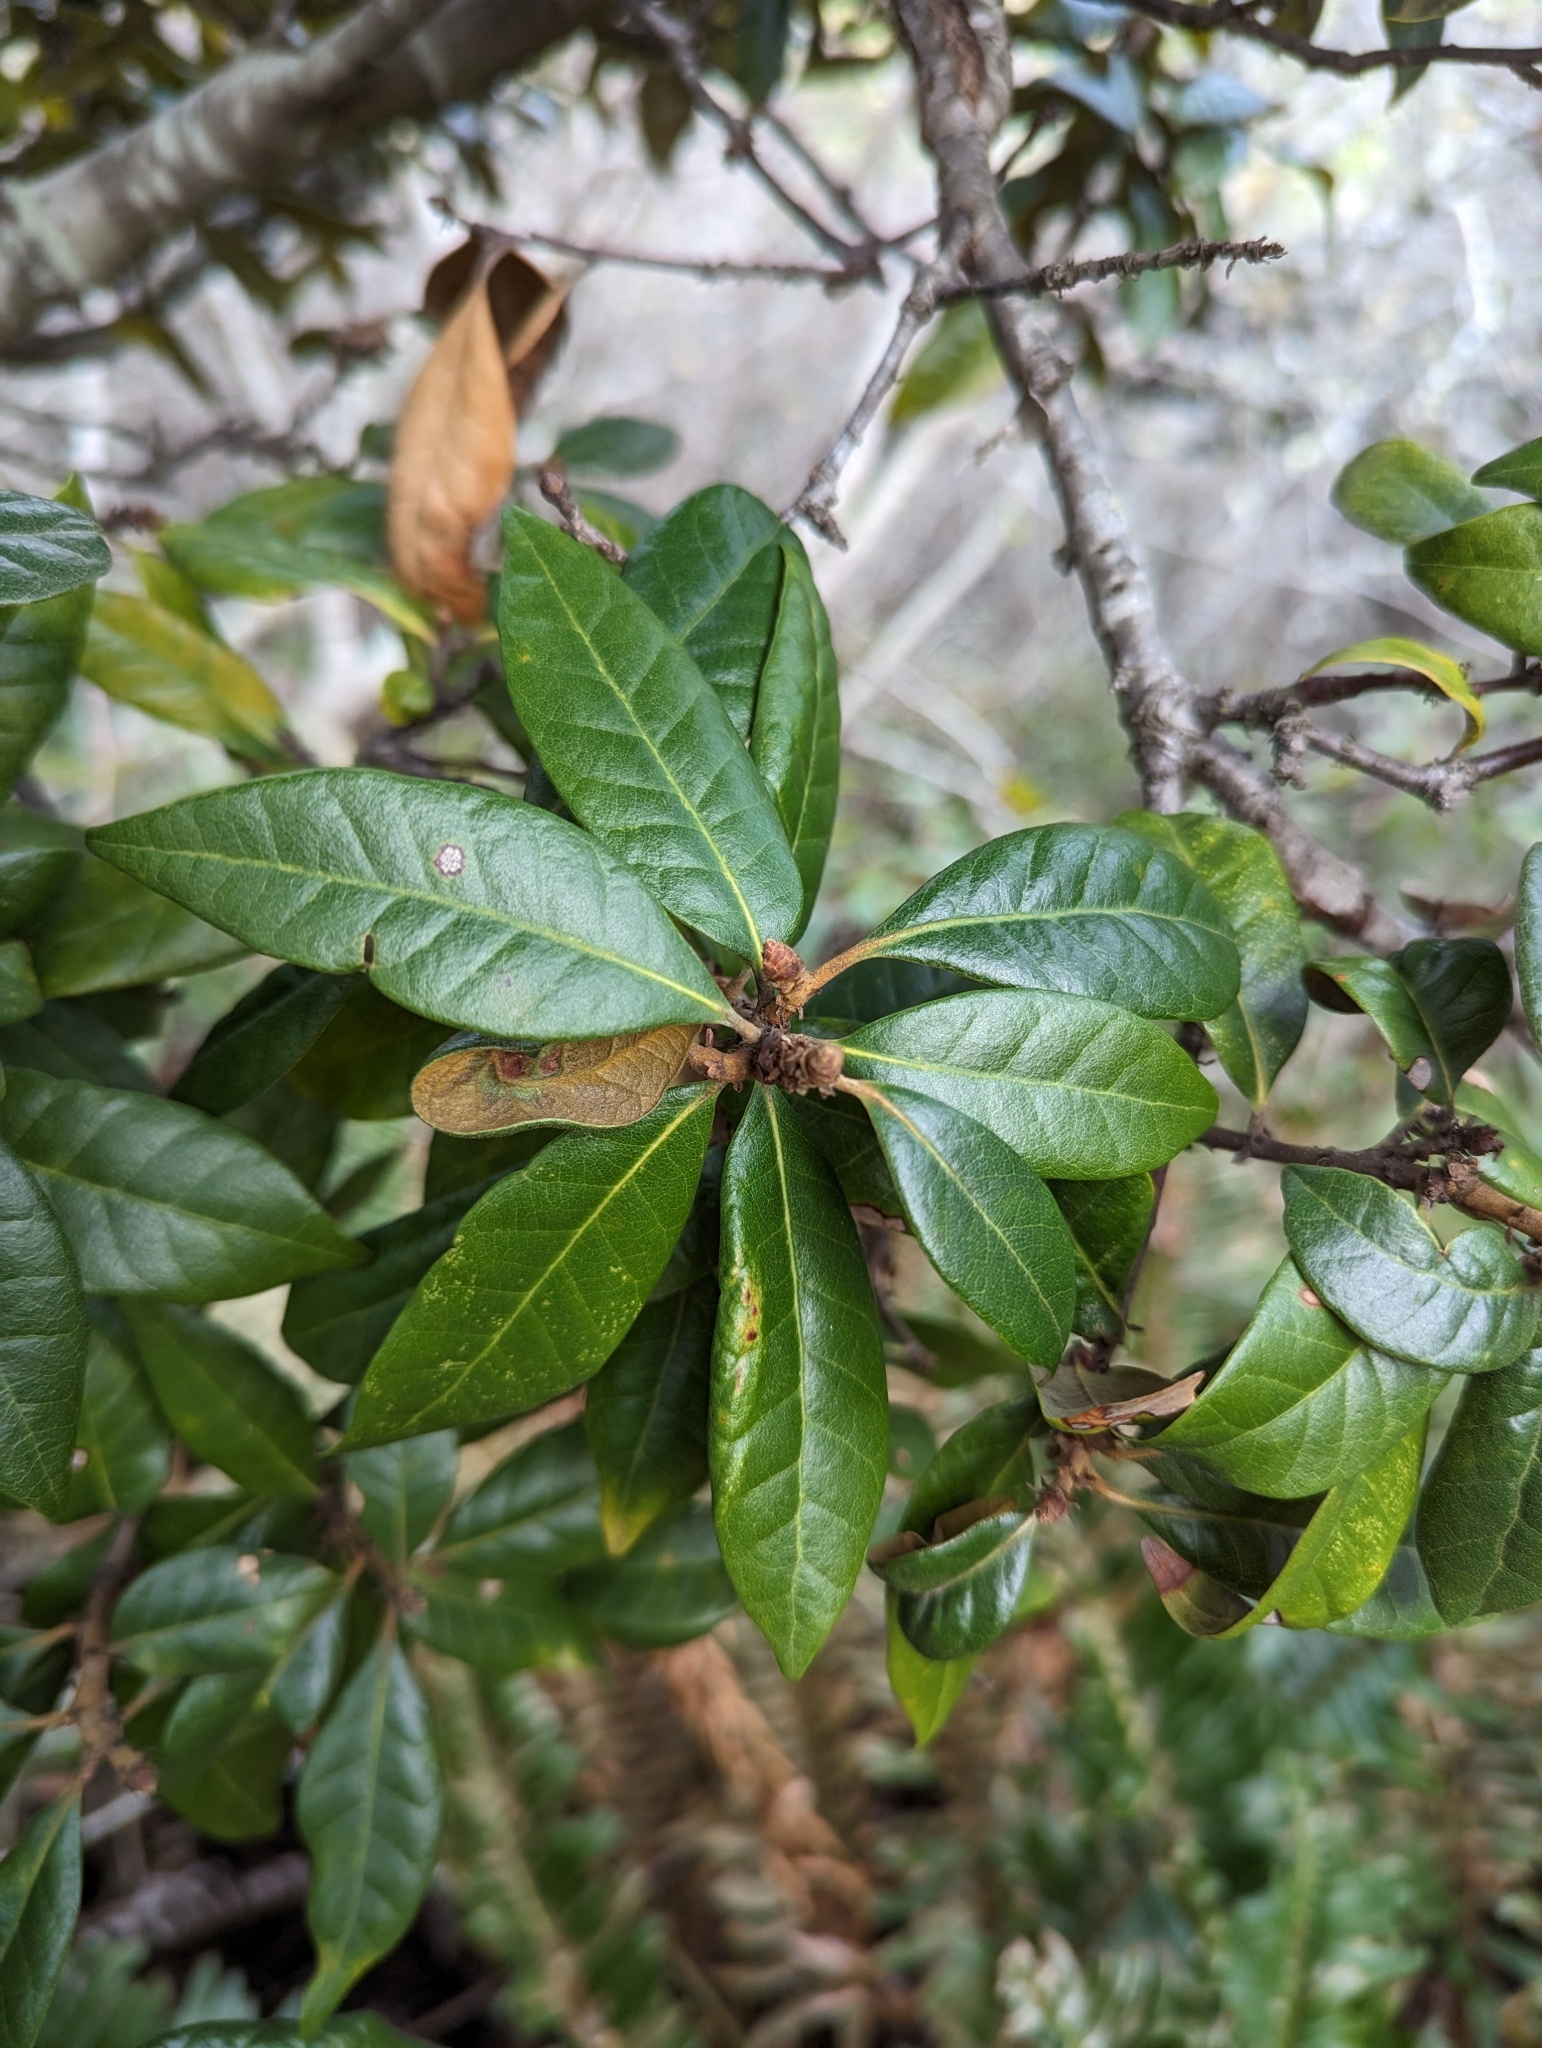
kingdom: Plantae
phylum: Tracheophyta
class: Magnoliopsida
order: Fagales
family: Fagaceae
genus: Chrysolepis
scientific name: Chrysolepis chrysophylla
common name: Giant chinquapin
